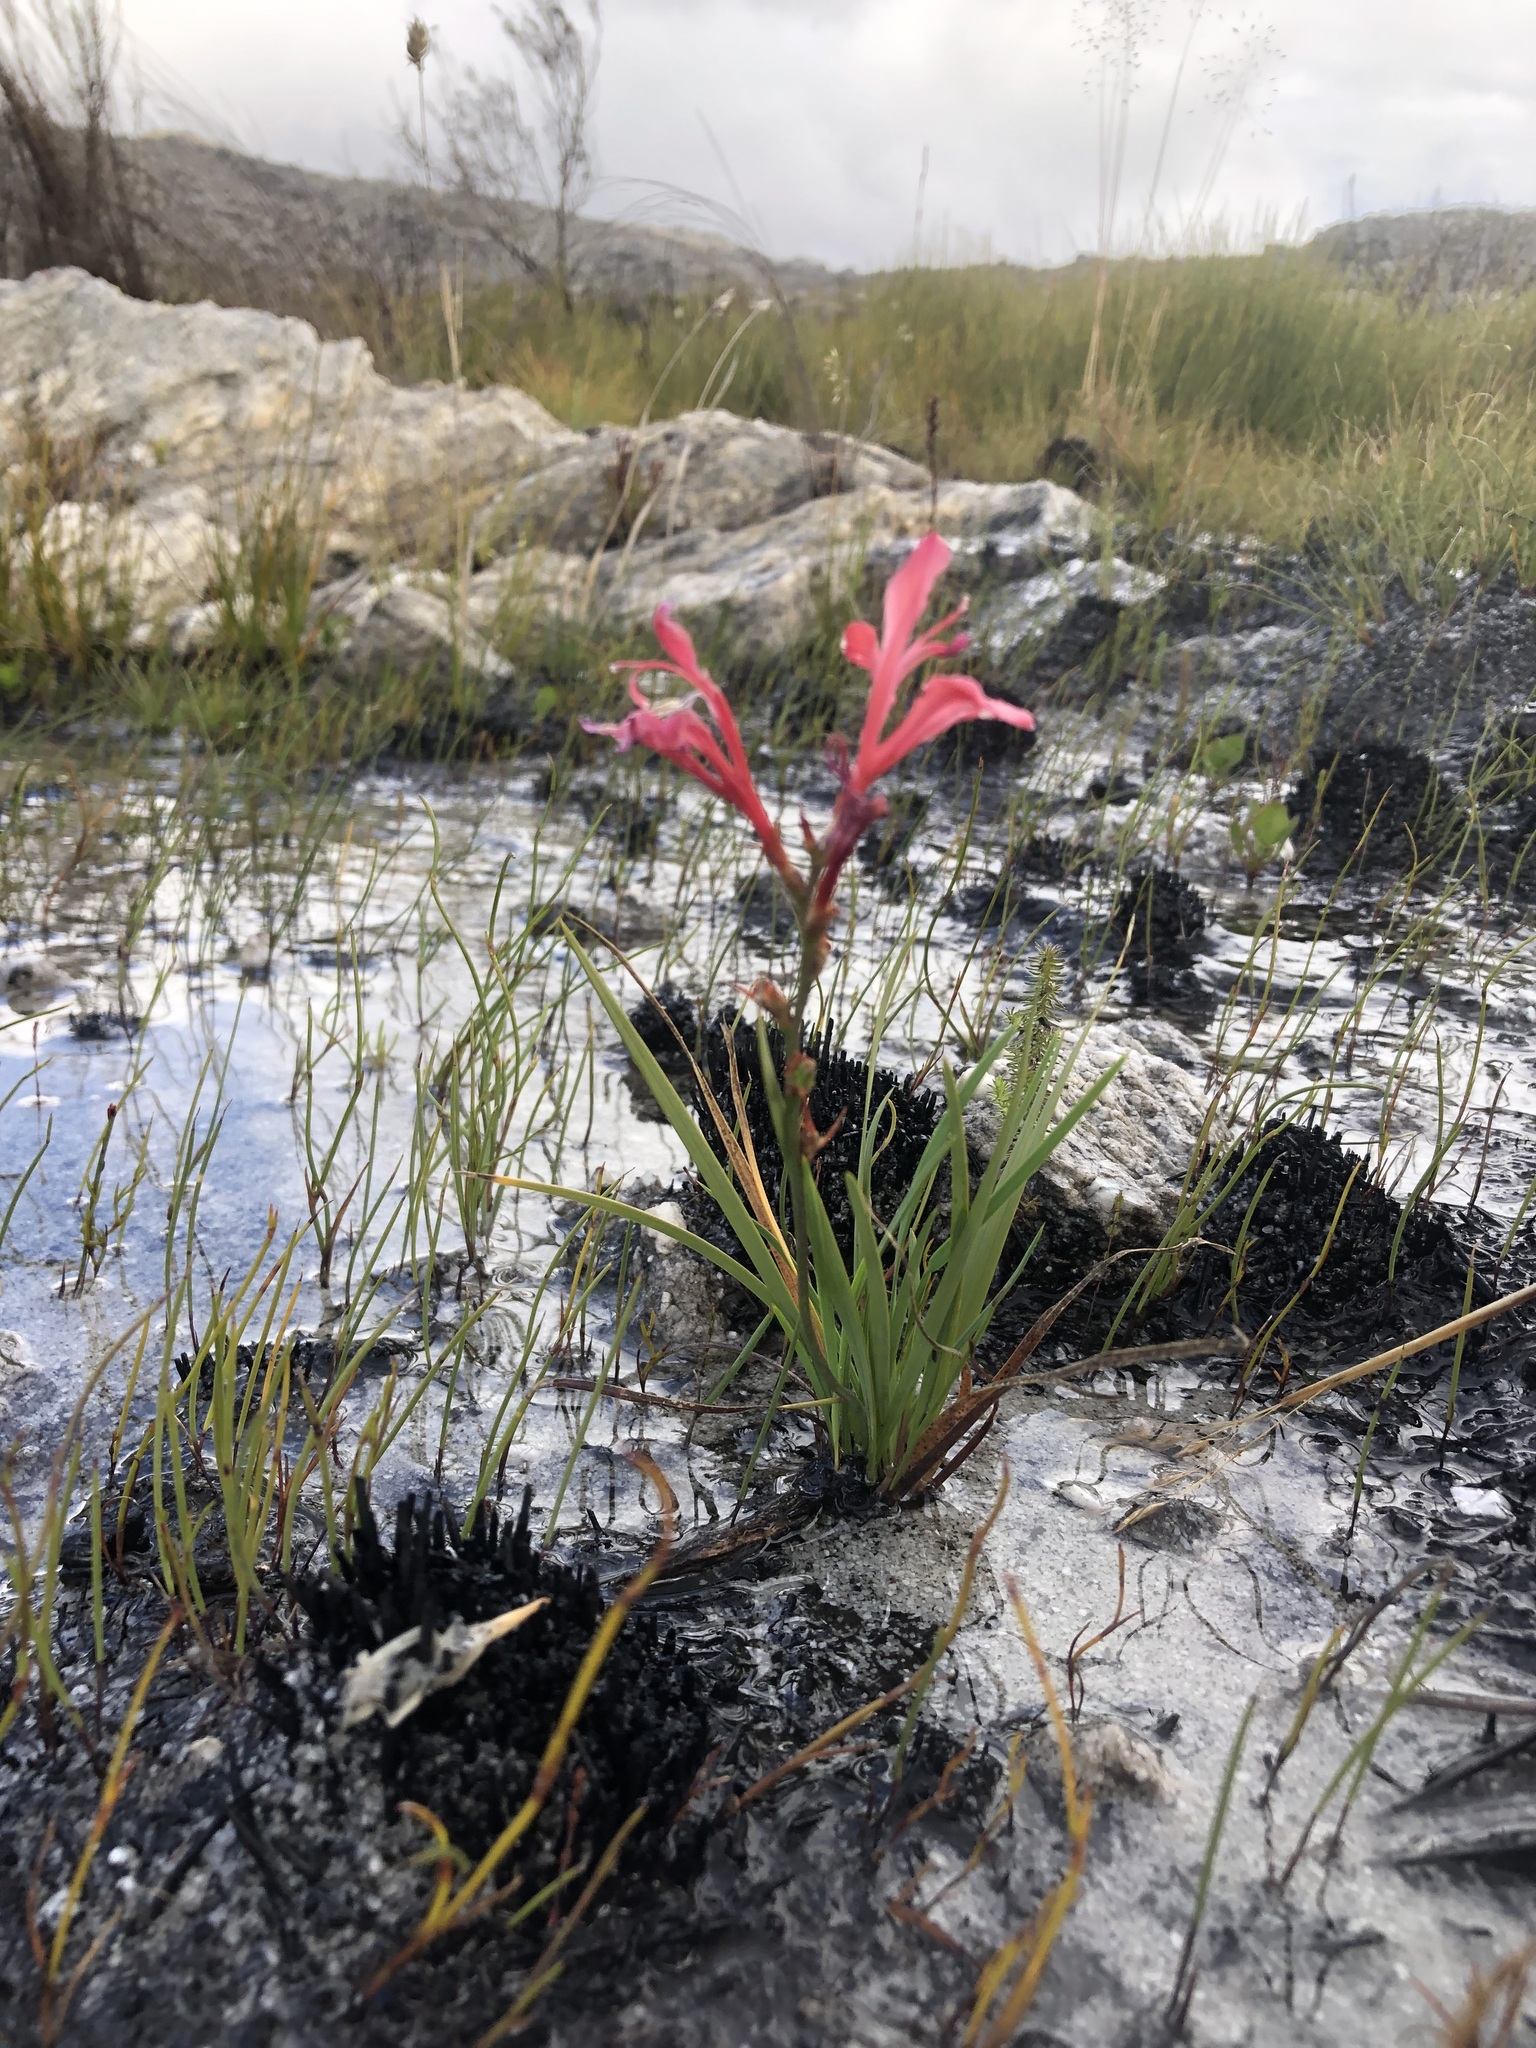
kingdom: Plantae
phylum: Tracheophyta
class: Liliopsida
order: Asparagales
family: Iridaceae
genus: Tritoniopsis
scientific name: Tritoniopsis lata
